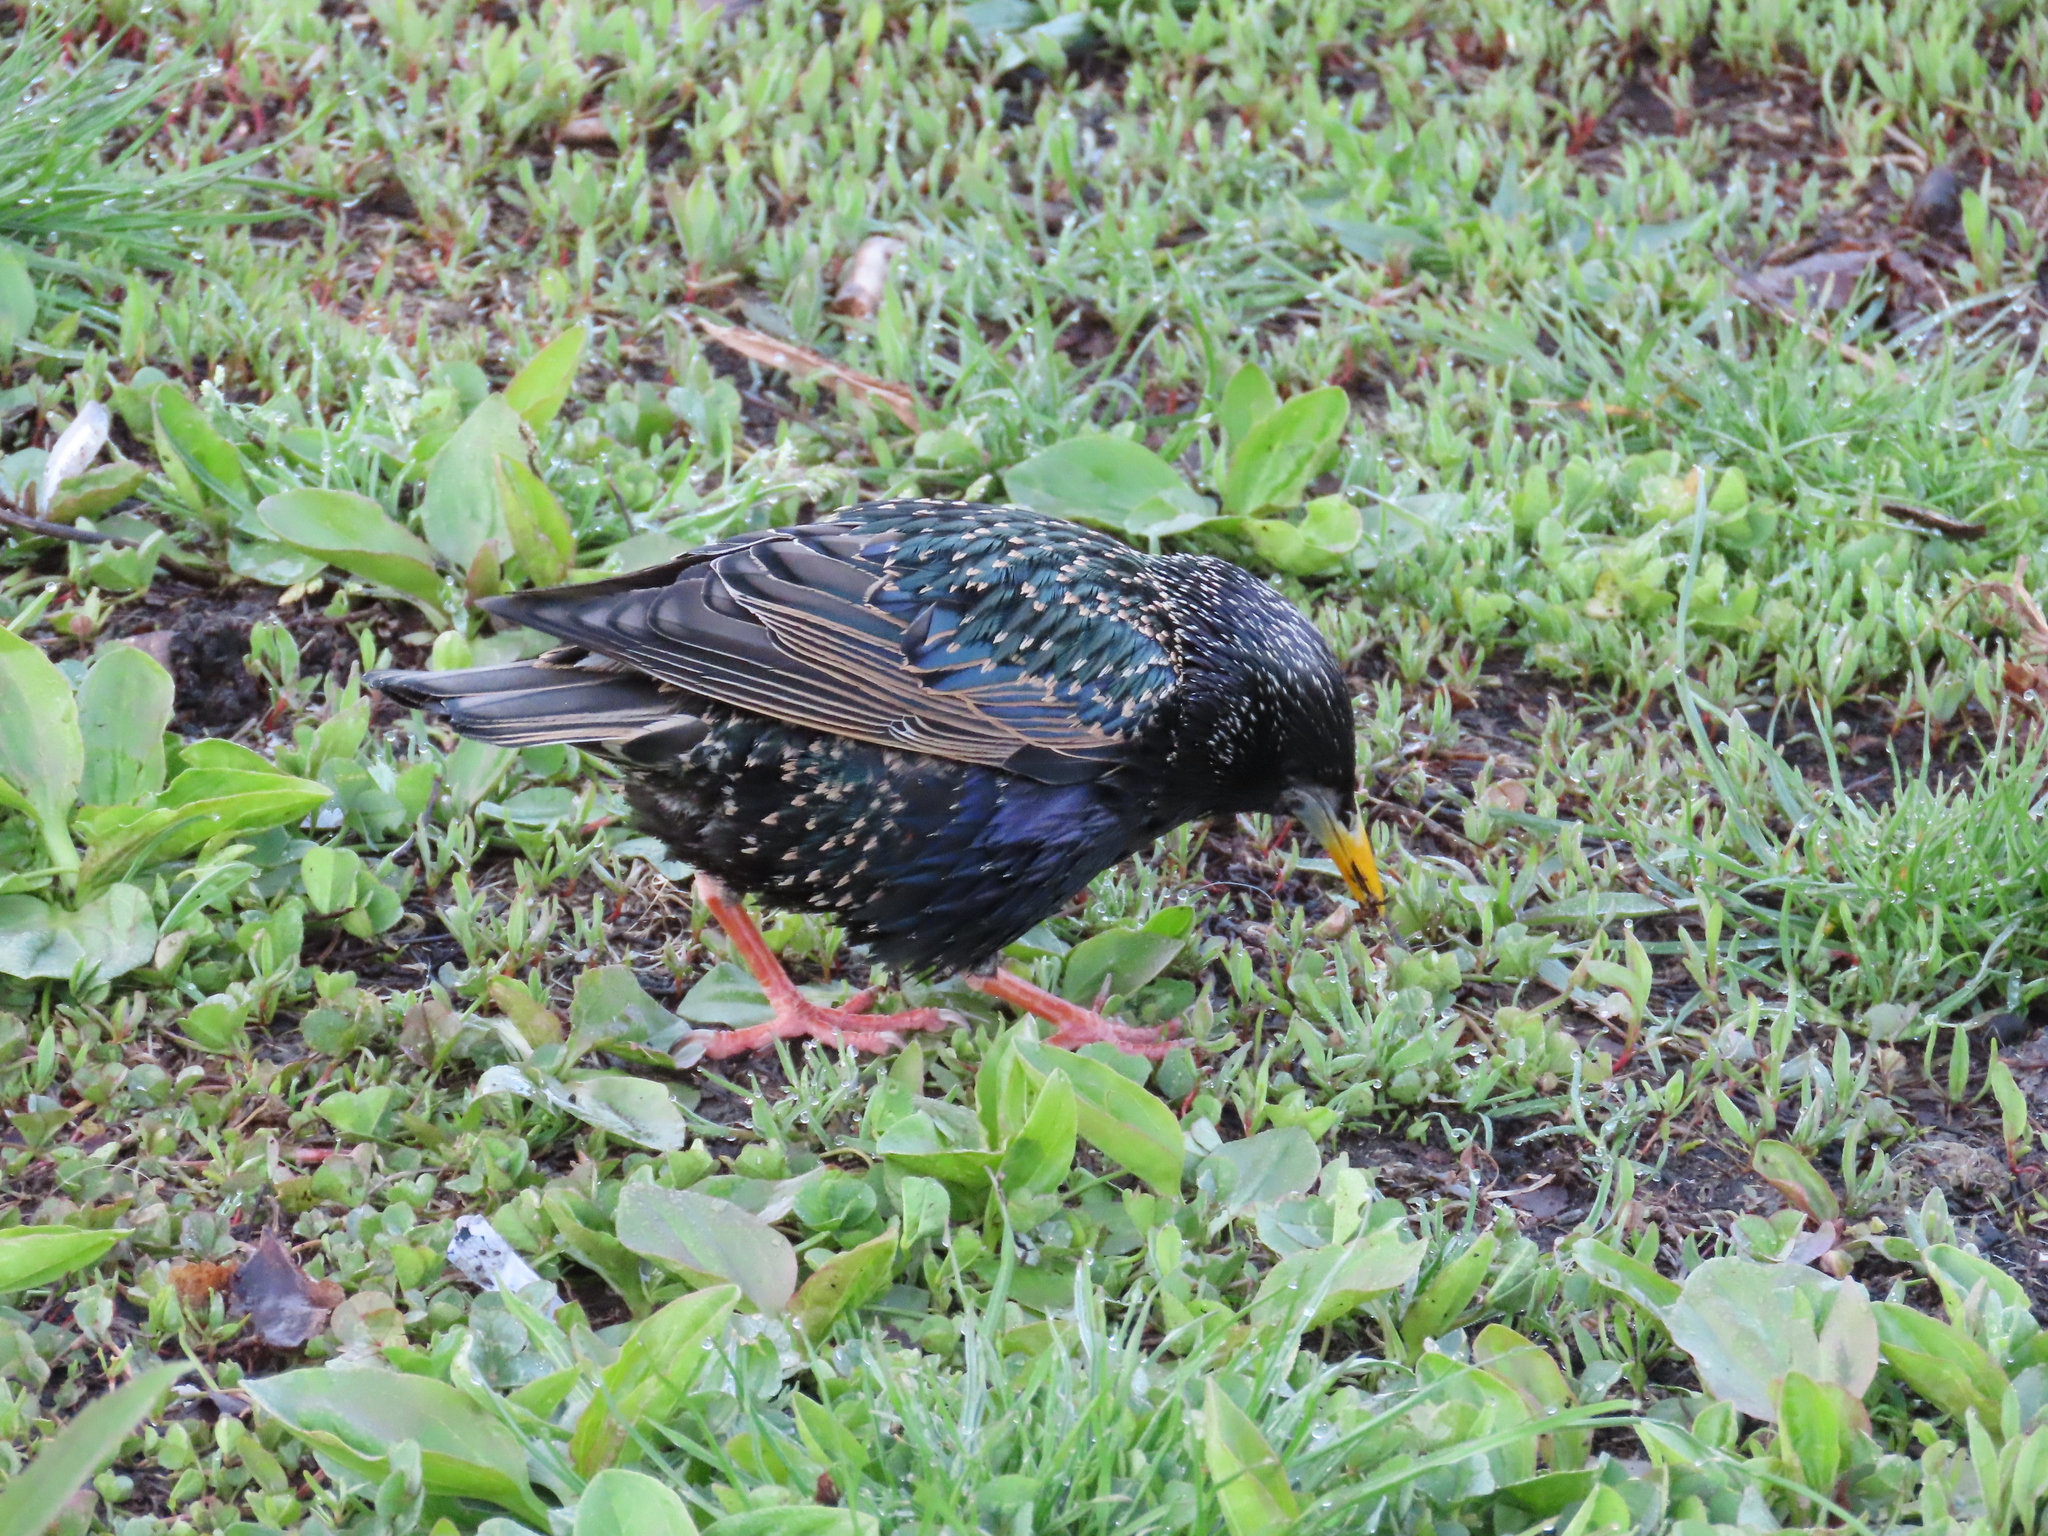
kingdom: Animalia
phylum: Chordata
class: Aves
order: Passeriformes
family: Sturnidae
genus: Sturnus
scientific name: Sturnus vulgaris
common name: Common starling
